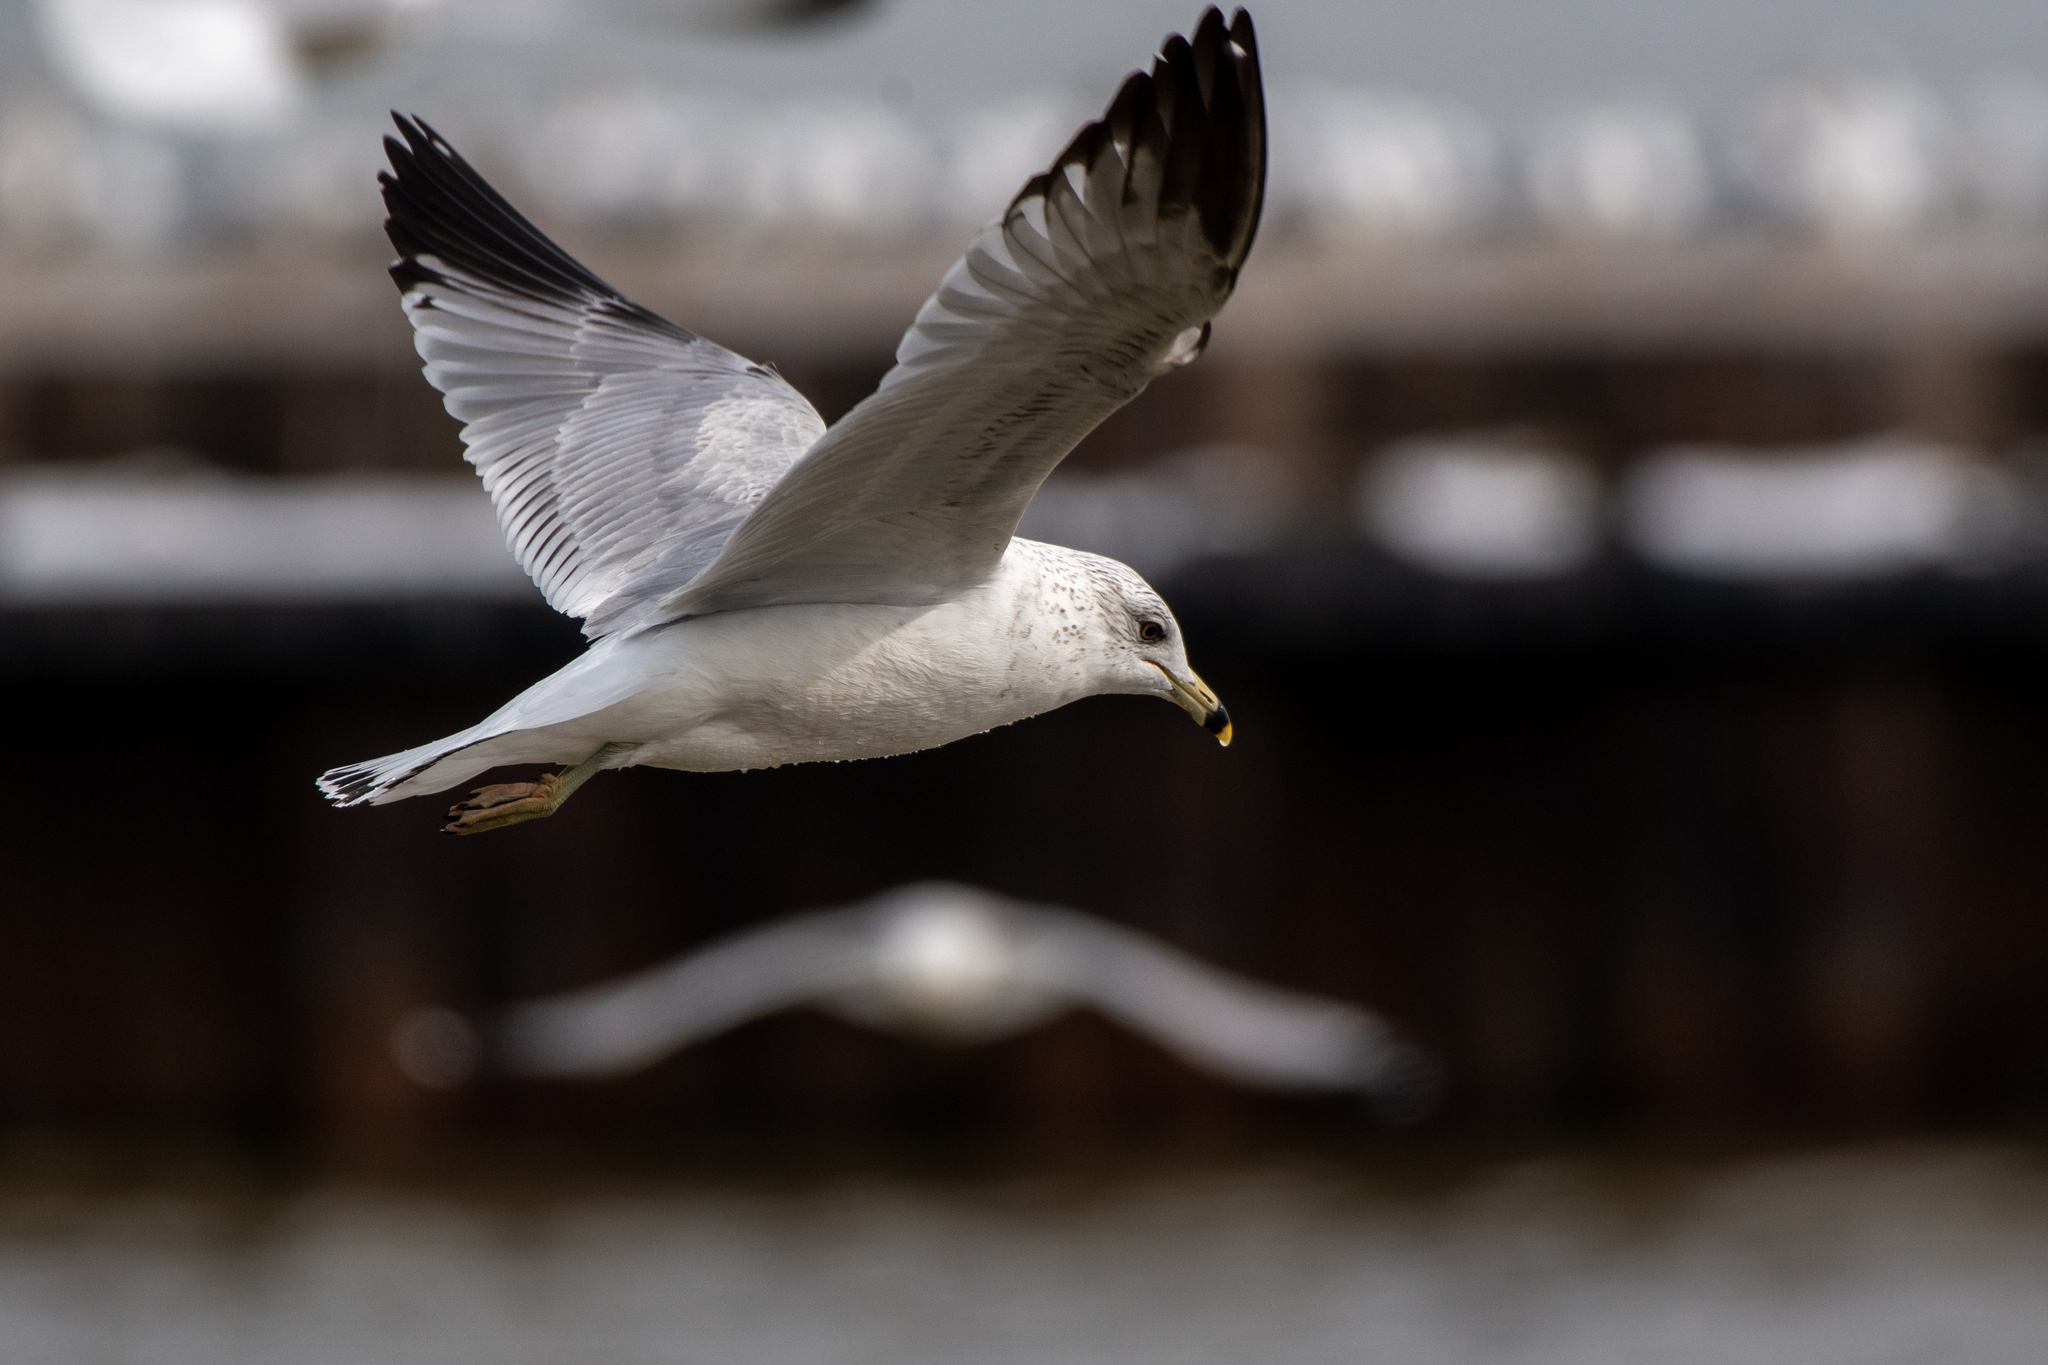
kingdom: Animalia
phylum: Chordata
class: Aves
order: Charadriiformes
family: Laridae
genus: Larus
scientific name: Larus delawarensis
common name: Ring-billed gull
